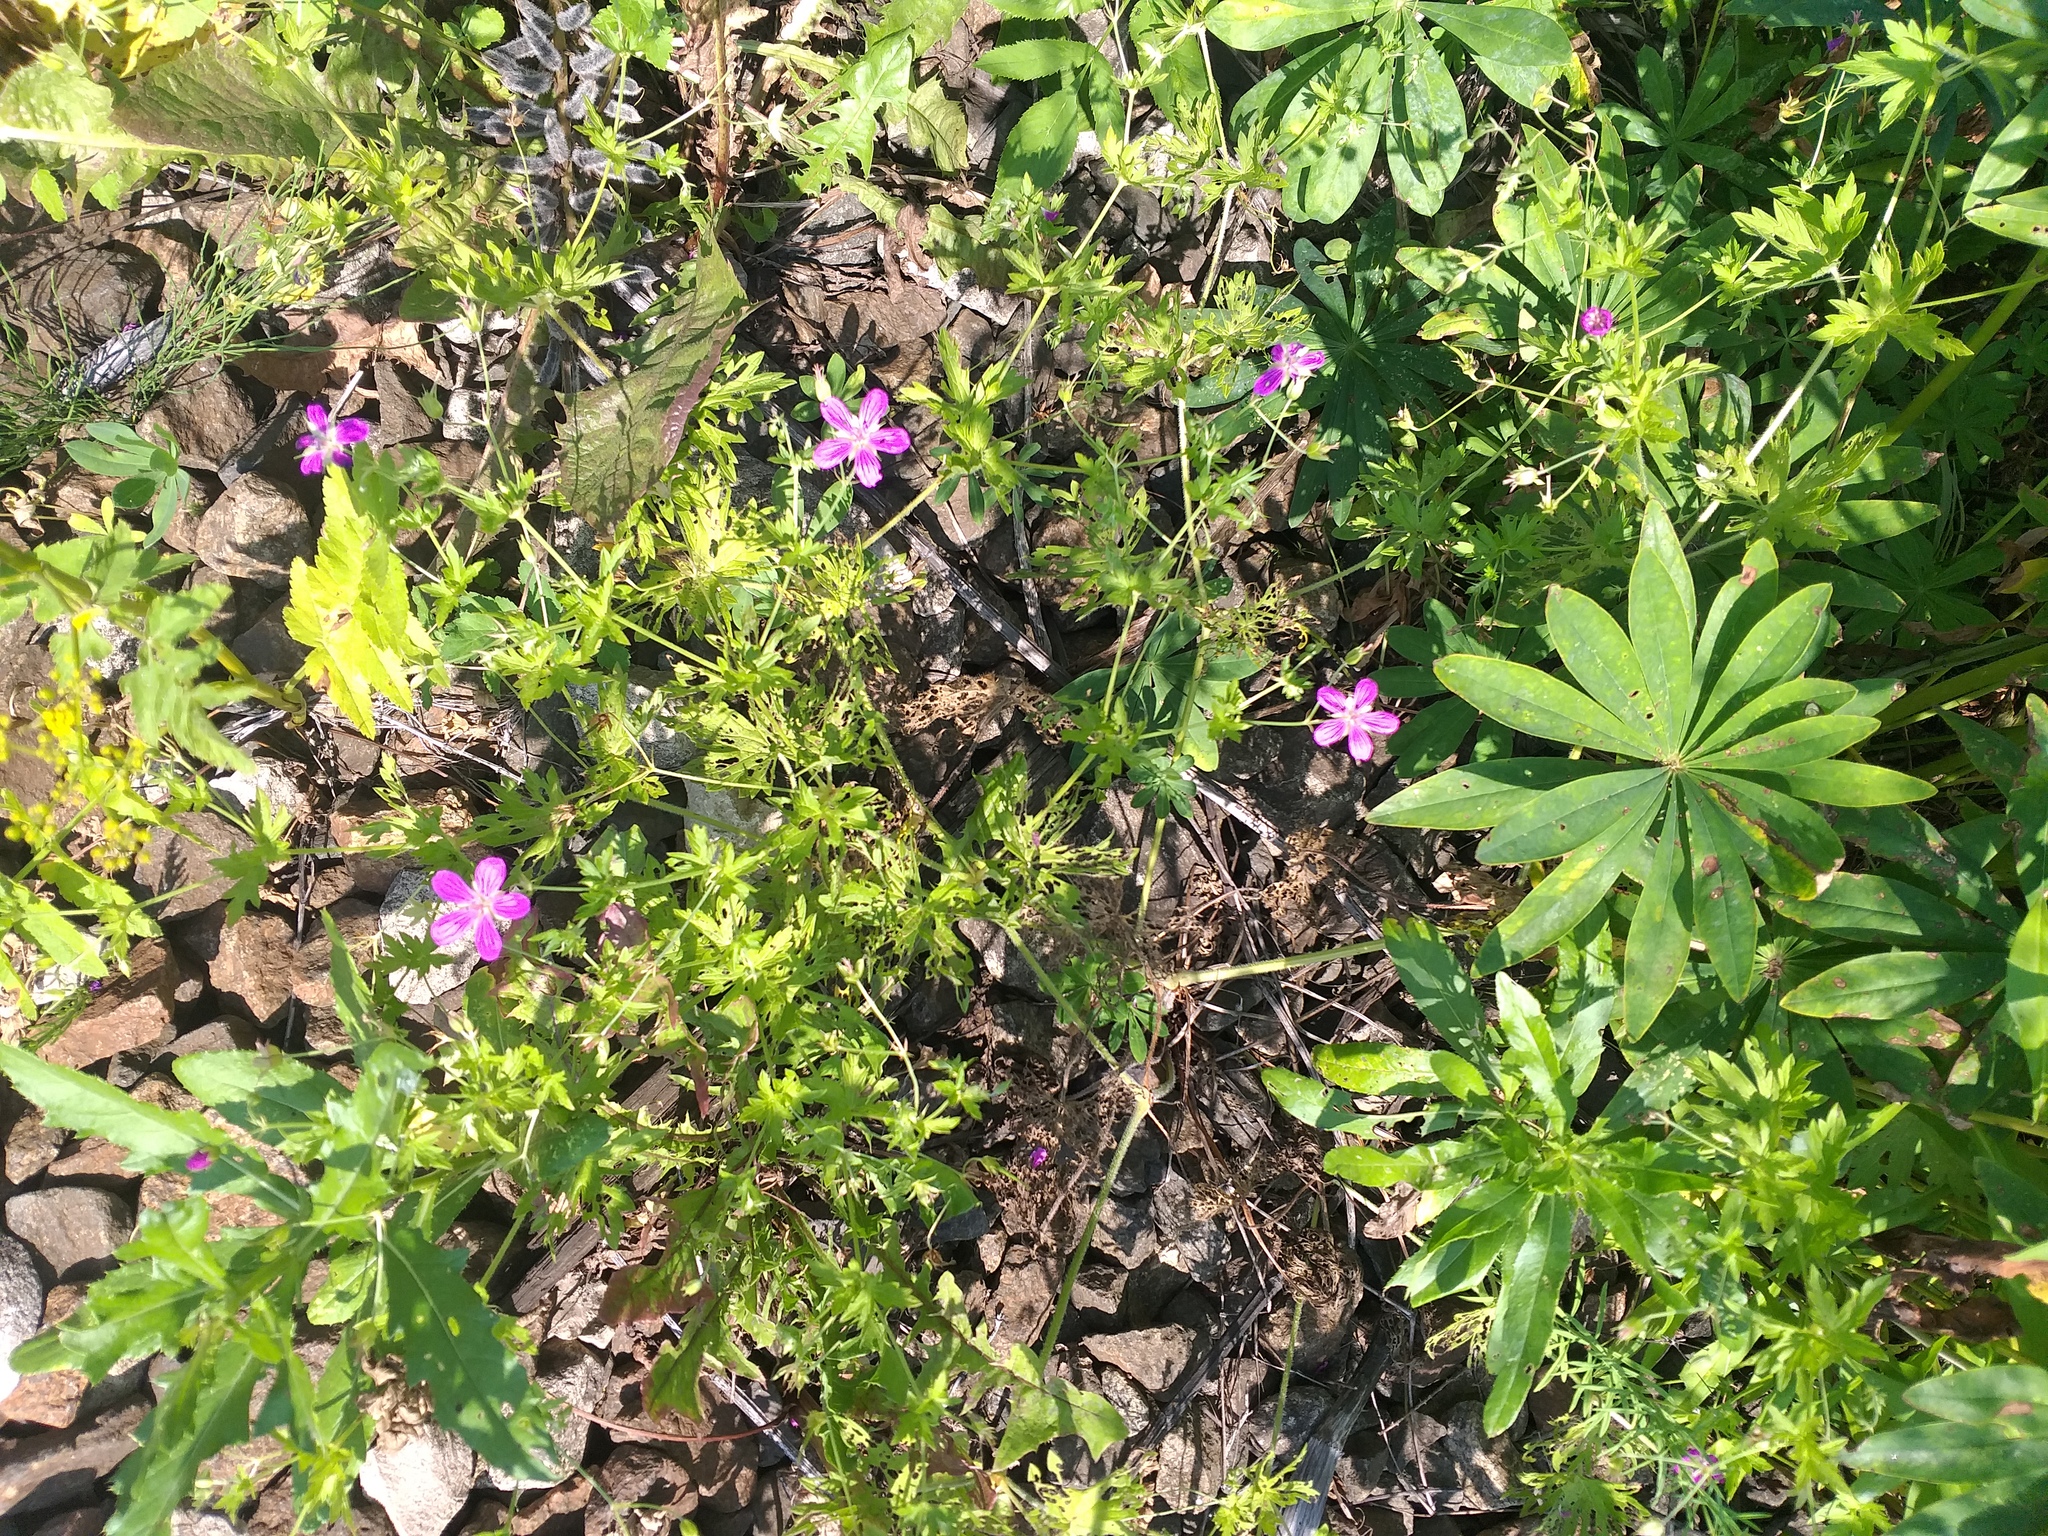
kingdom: Plantae
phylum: Tracheophyta
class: Magnoliopsida
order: Geraniales
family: Geraniaceae
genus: Geranium
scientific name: Geranium palustre
